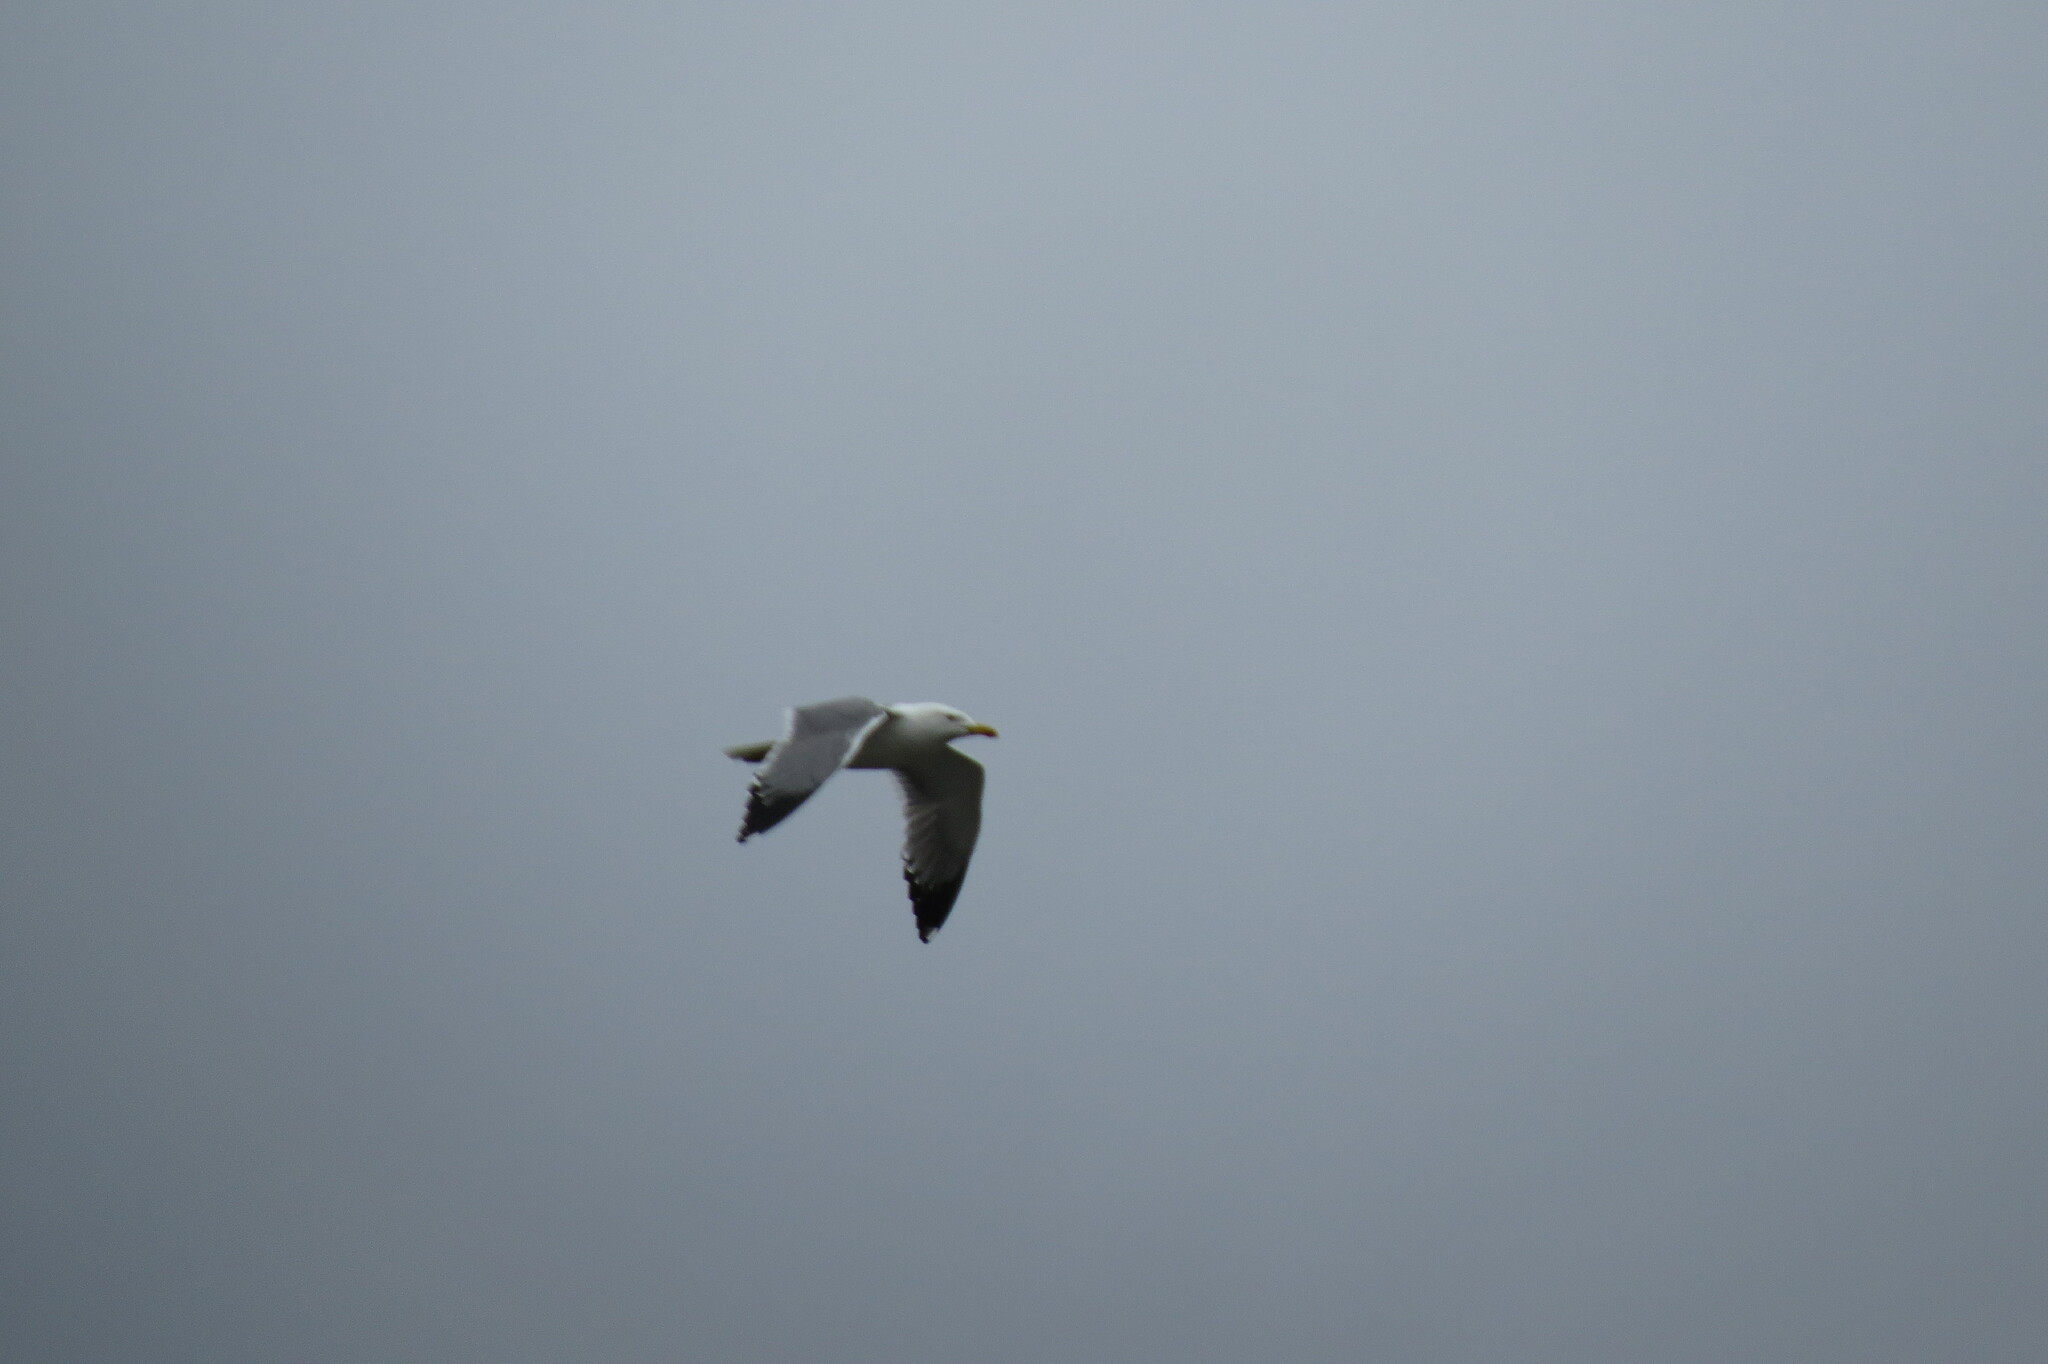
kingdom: Animalia
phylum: Chordata
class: Aves
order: Charadriiformes
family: Laridae
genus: Larus
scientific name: Larus fuscus
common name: Lesser black-backed gull
